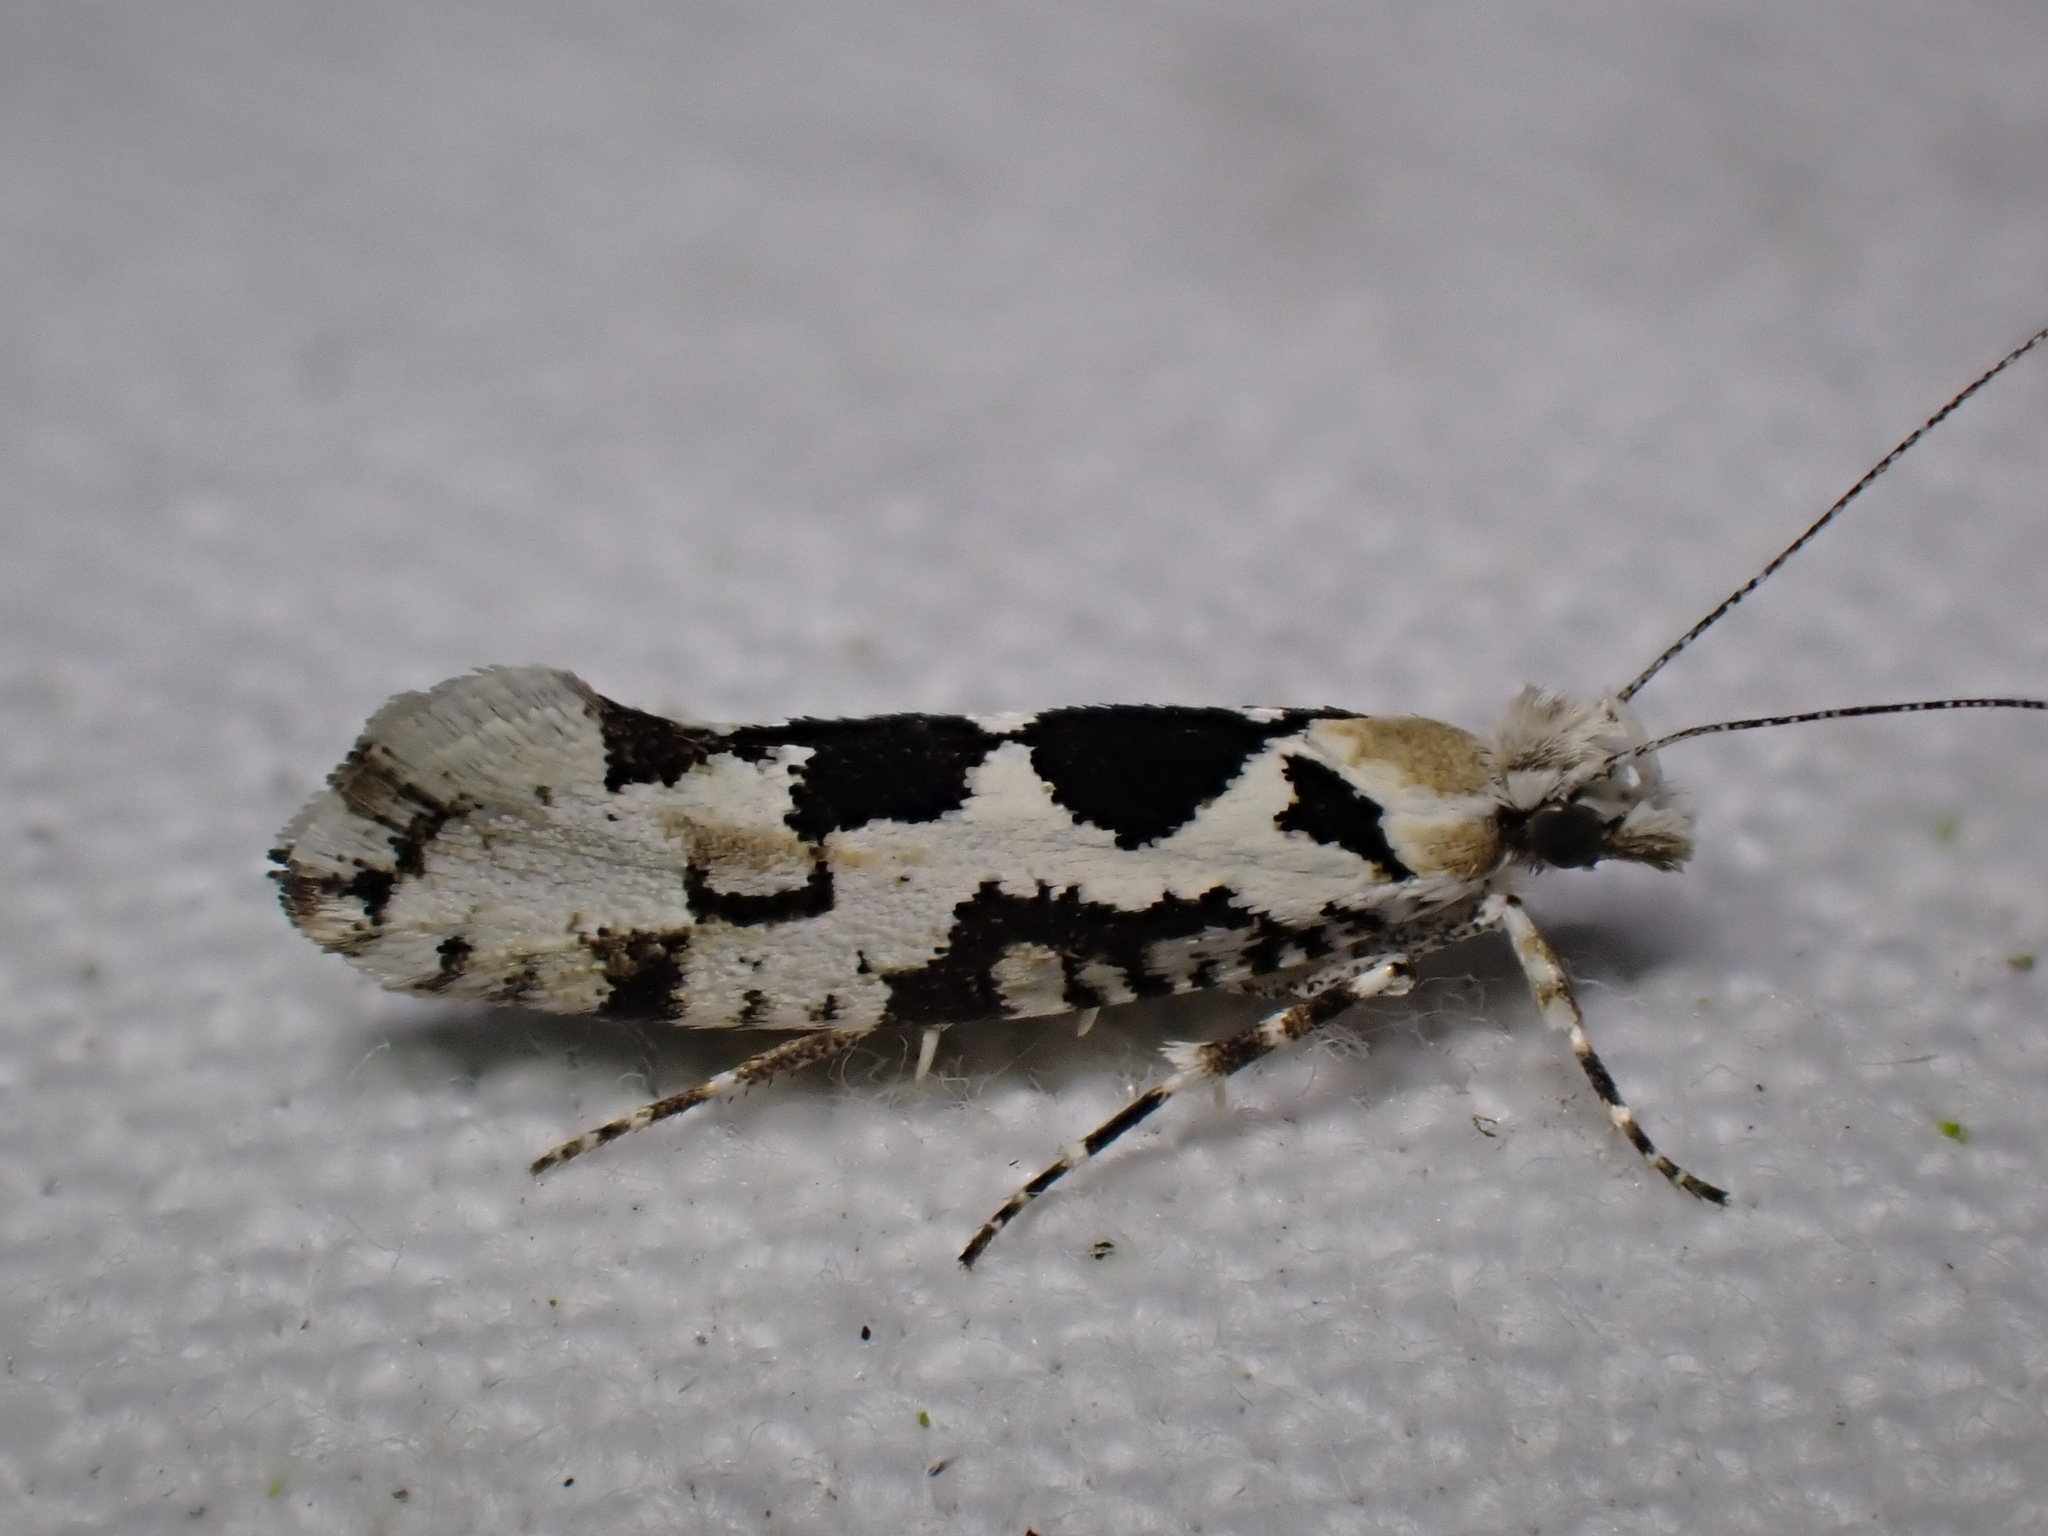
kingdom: Animalia
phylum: Arthropoda
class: Insecta
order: Lepidoptera
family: Plutellidae
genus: Ypsolophus
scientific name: Ypsolophus sequella
